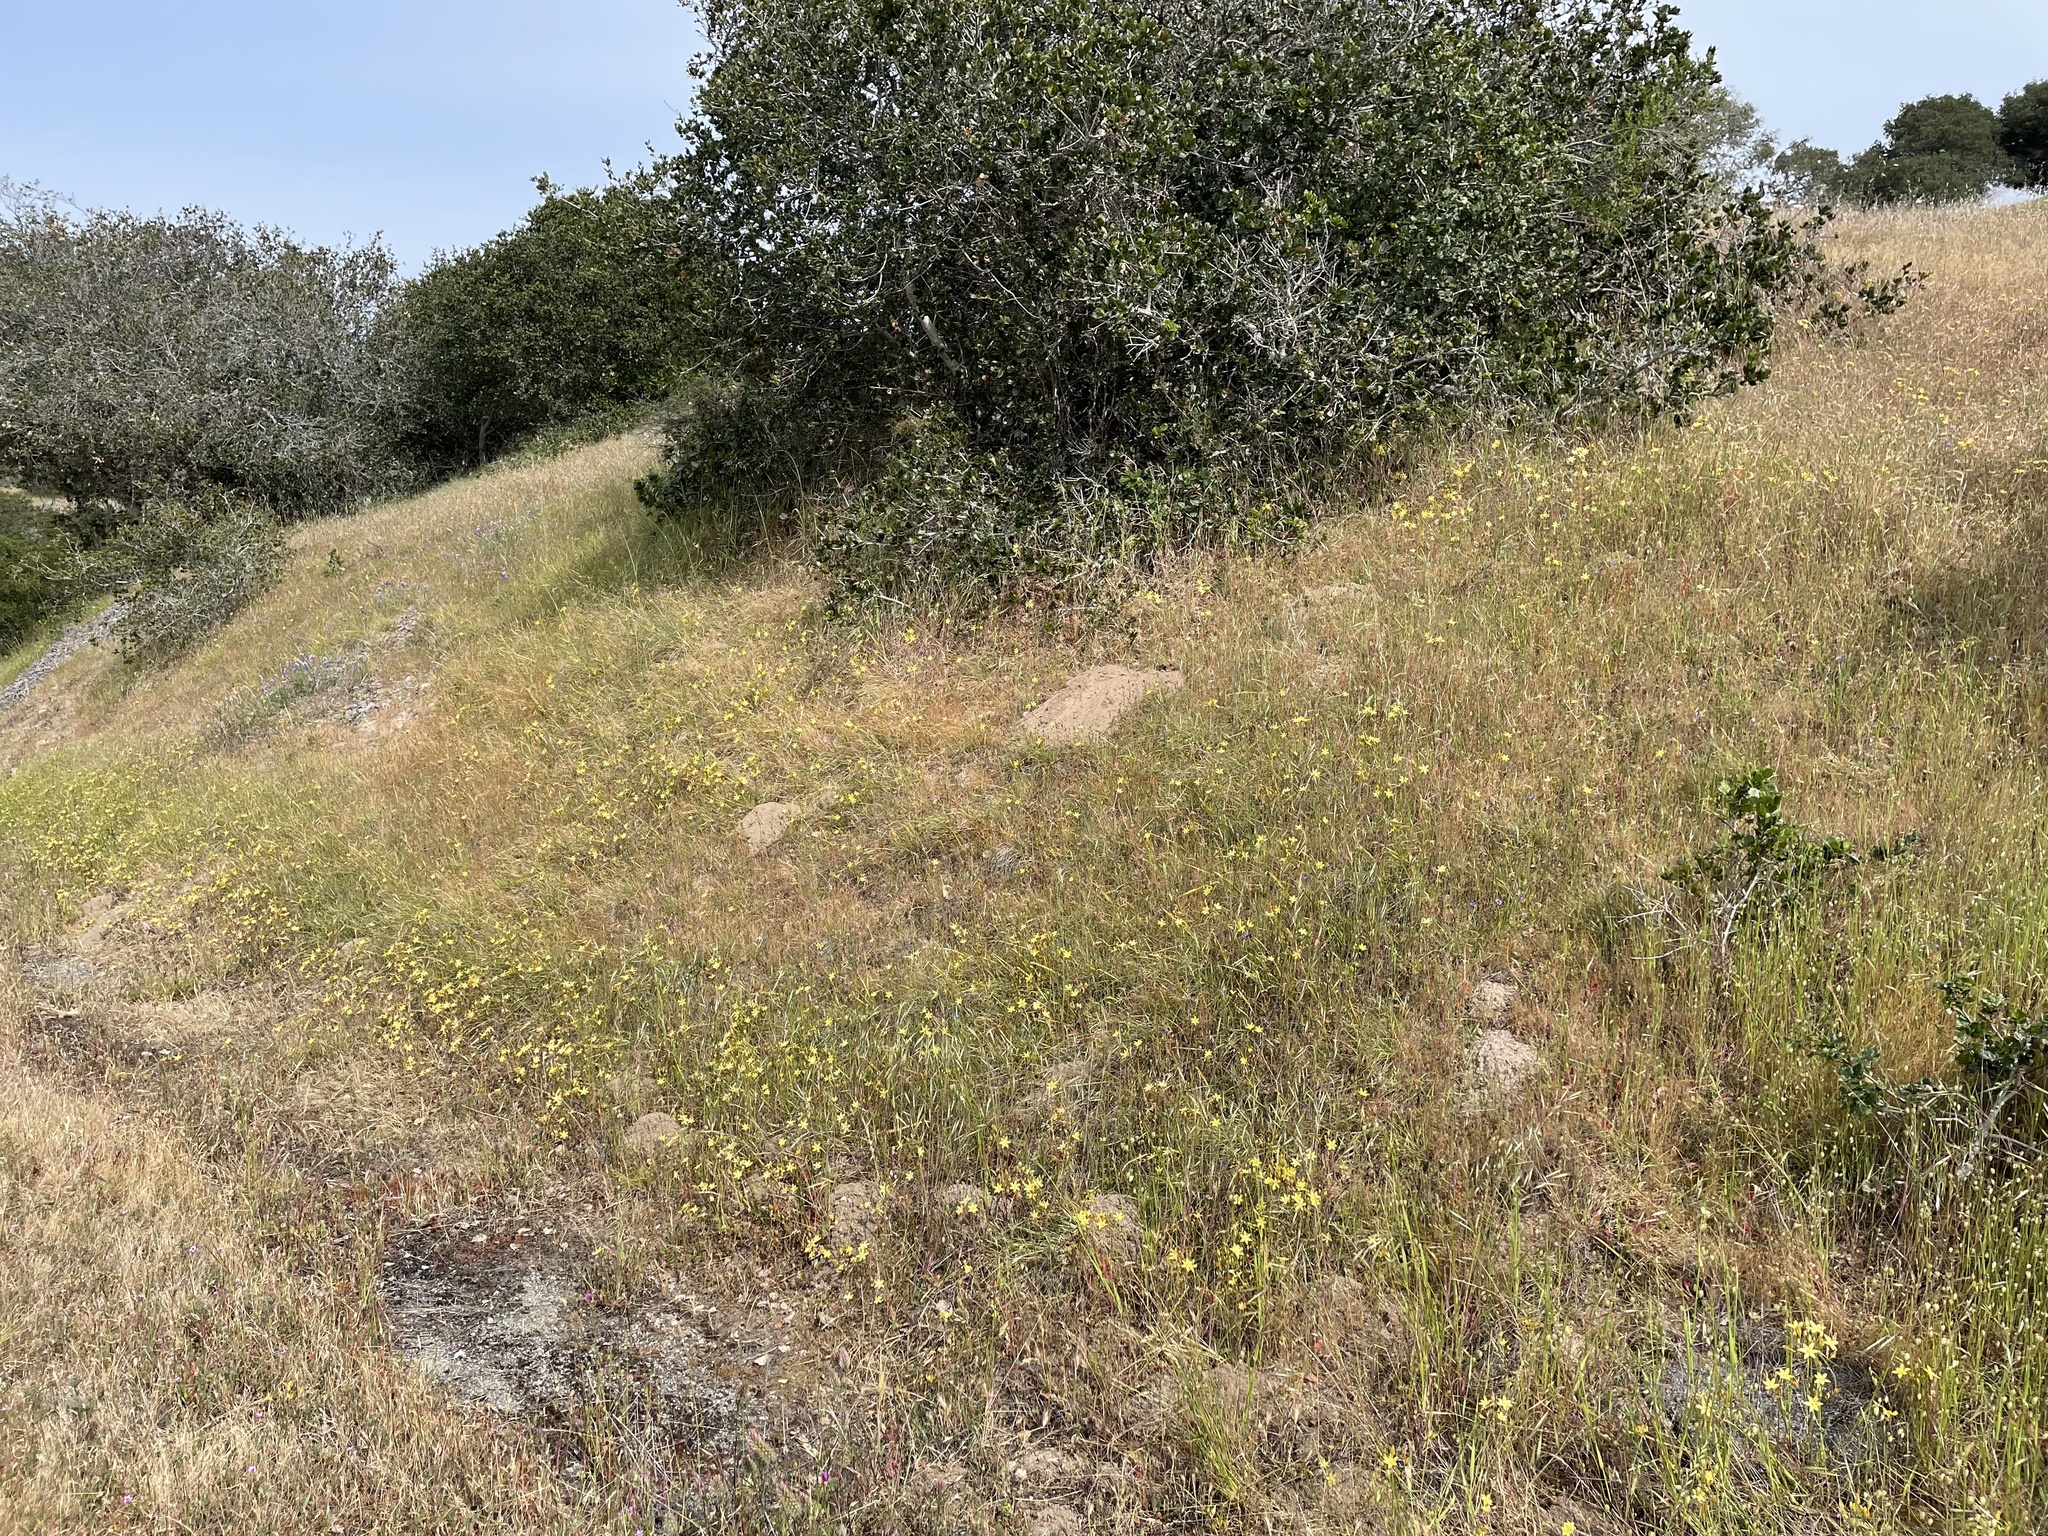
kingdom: Plantae
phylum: Tracheophyta
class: Liliopsida
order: Asparagales
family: Asparagaceae
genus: Triteleia
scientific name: Triteleia ixioides
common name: Yellow-brodiaea
